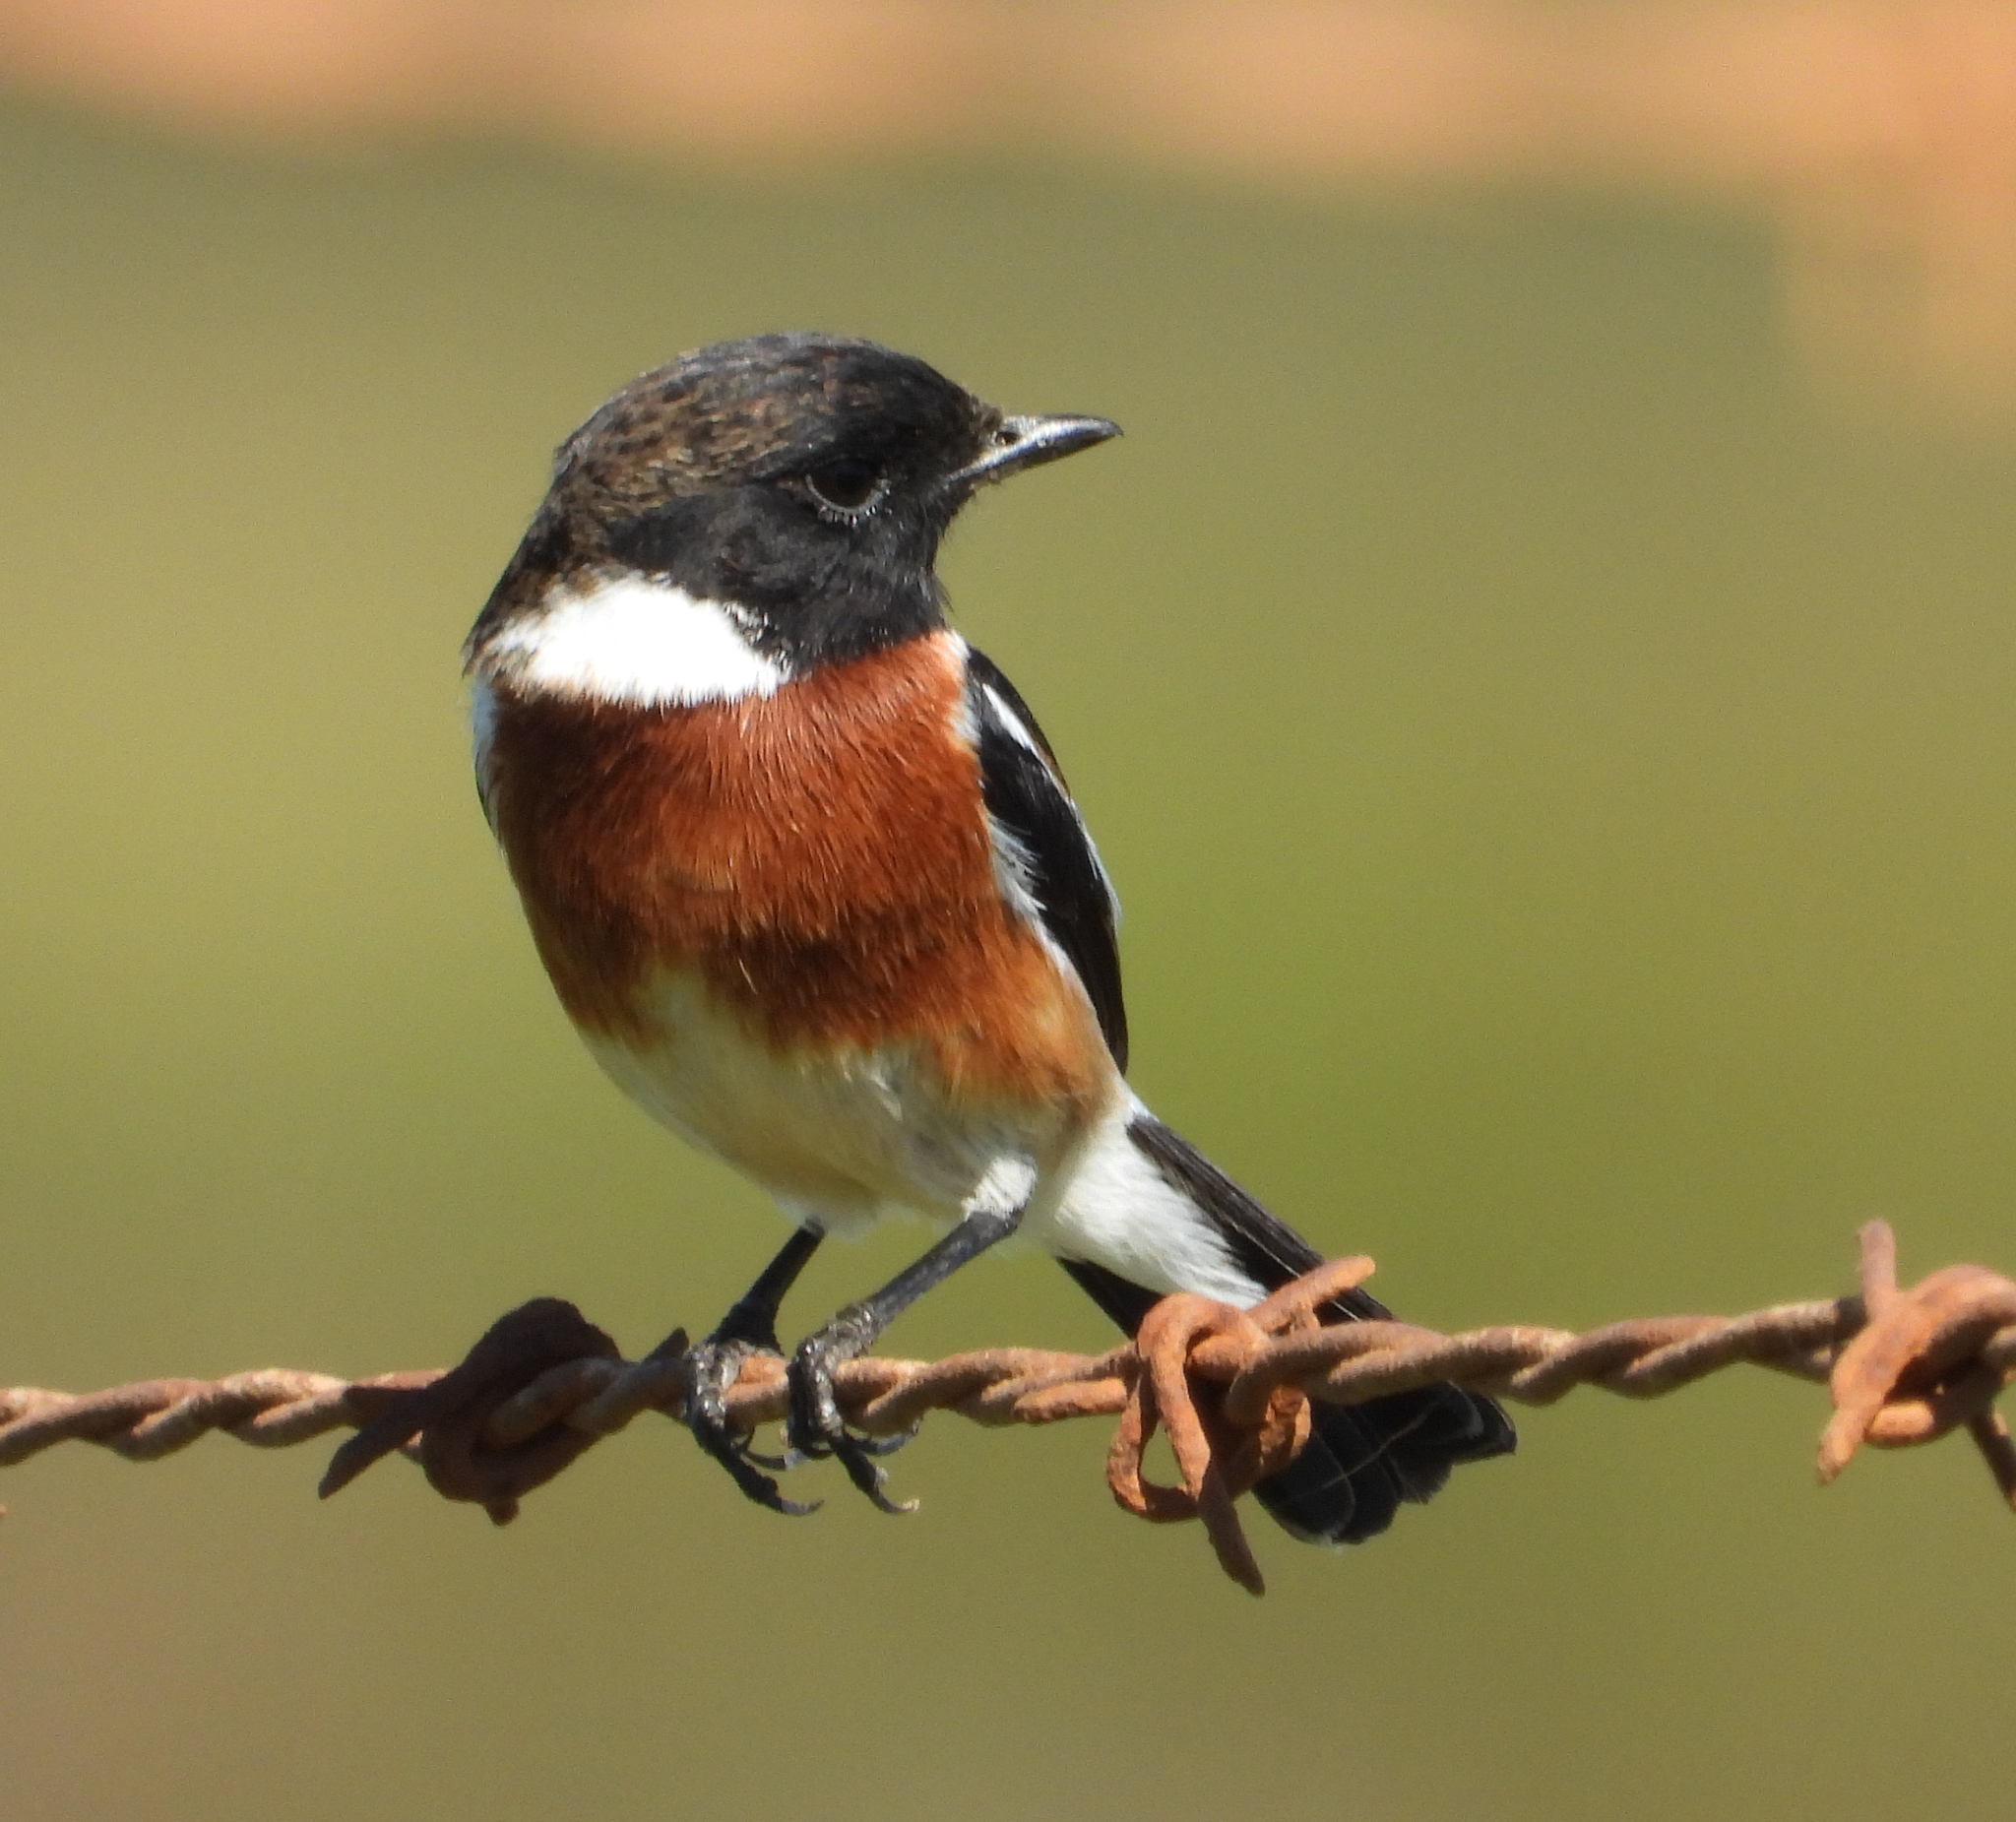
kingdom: Animalia
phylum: Chordata
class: Aves
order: Passeriformes
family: Muscicapidae
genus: Saxicola
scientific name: Saxicola torquatus
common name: African stonechat
